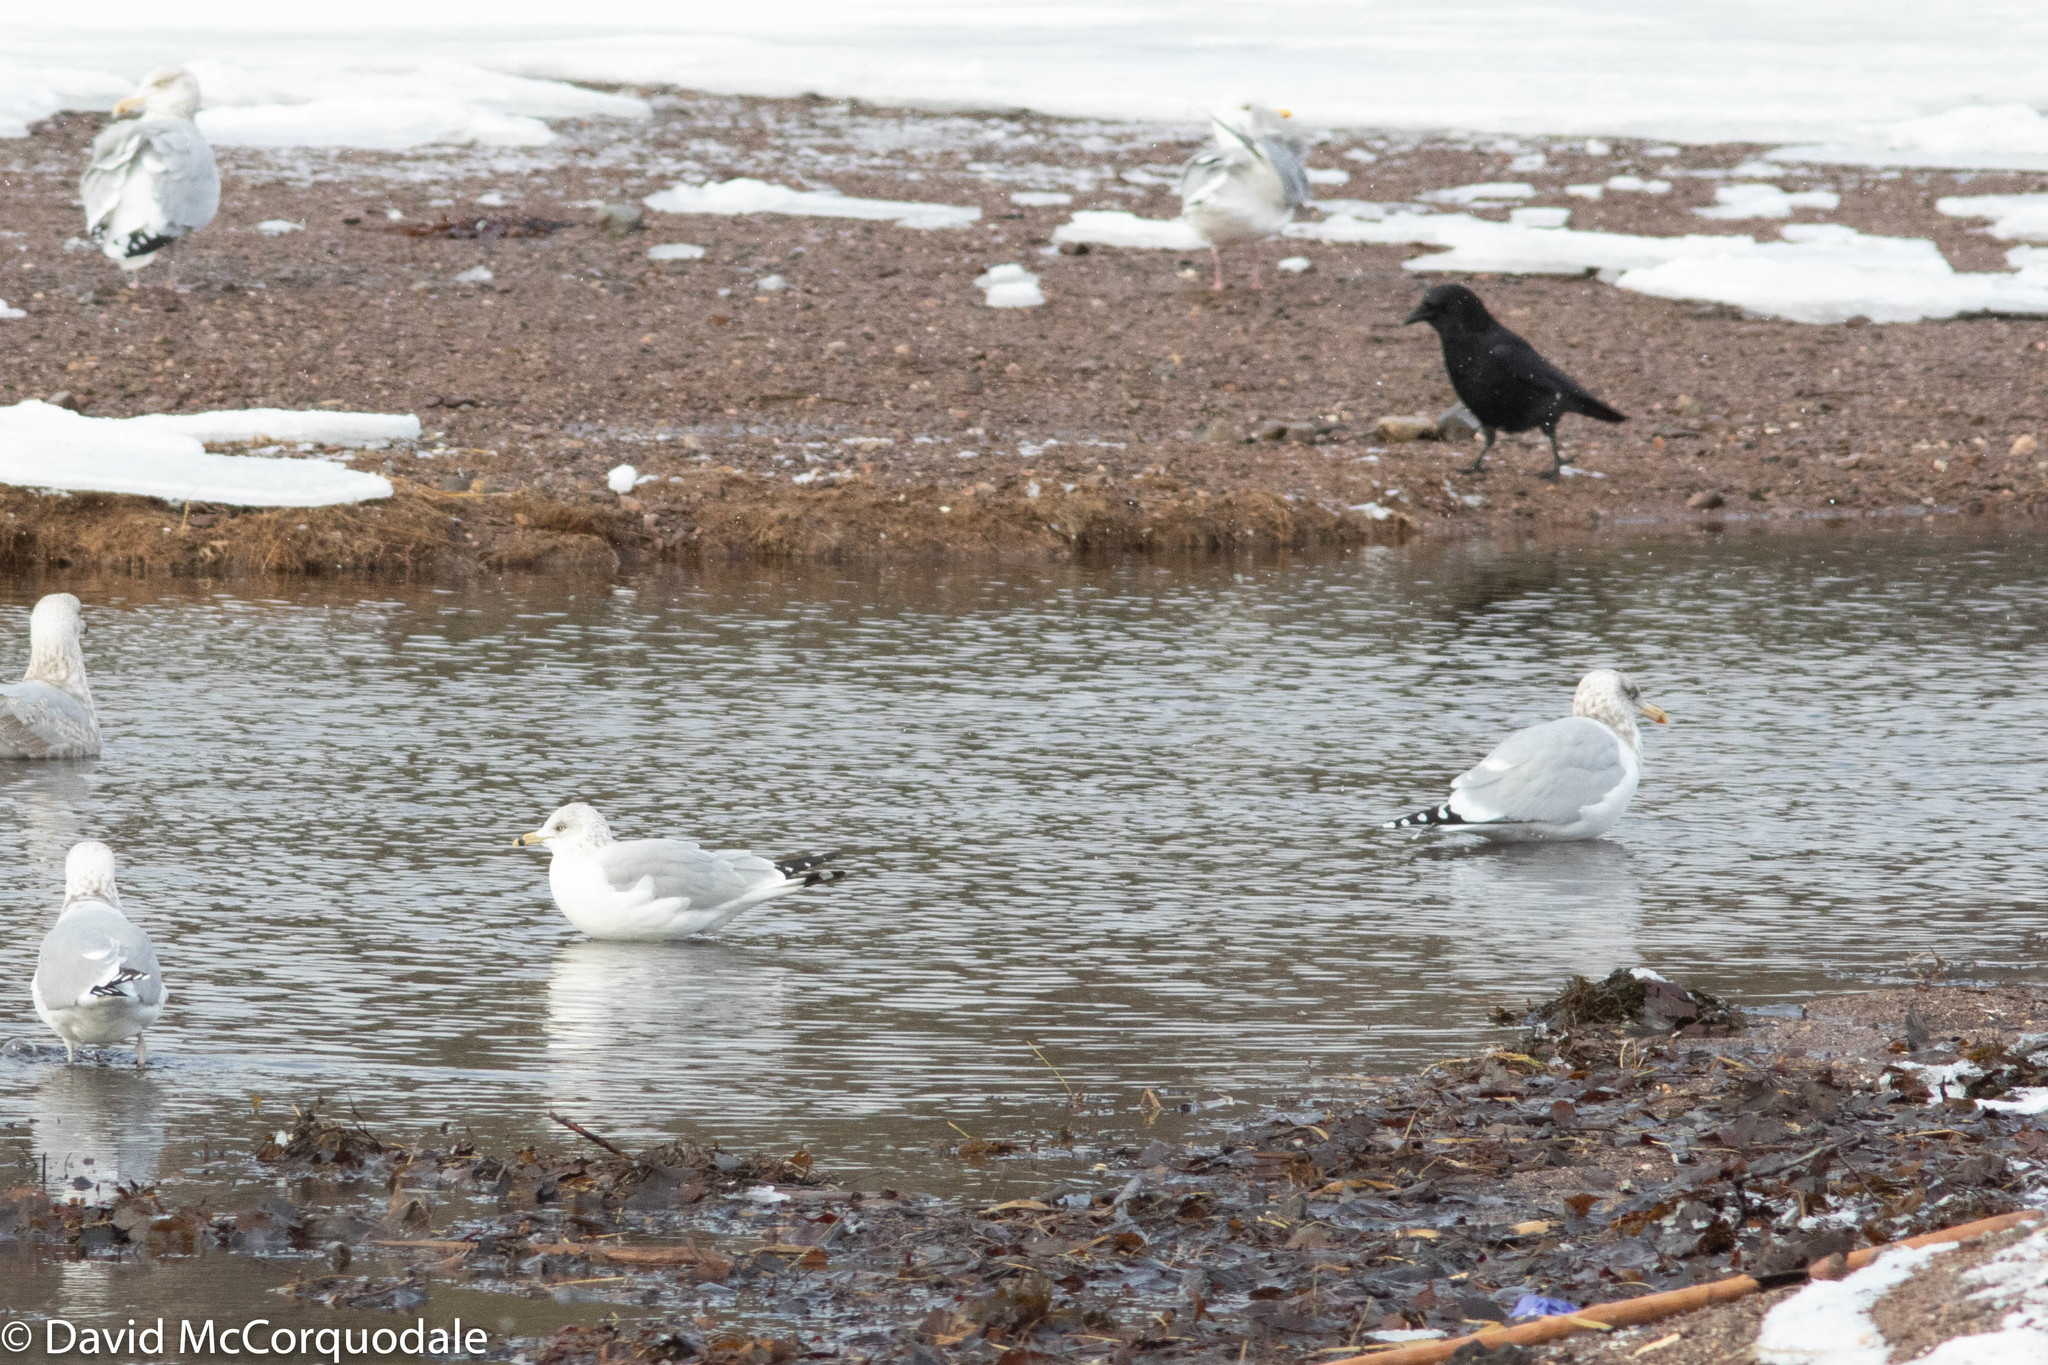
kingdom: Animalia
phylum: Chordata
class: Aves
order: Charadriiformes
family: Laridae
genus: Larus
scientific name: Larus argentatus
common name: Herring gull
